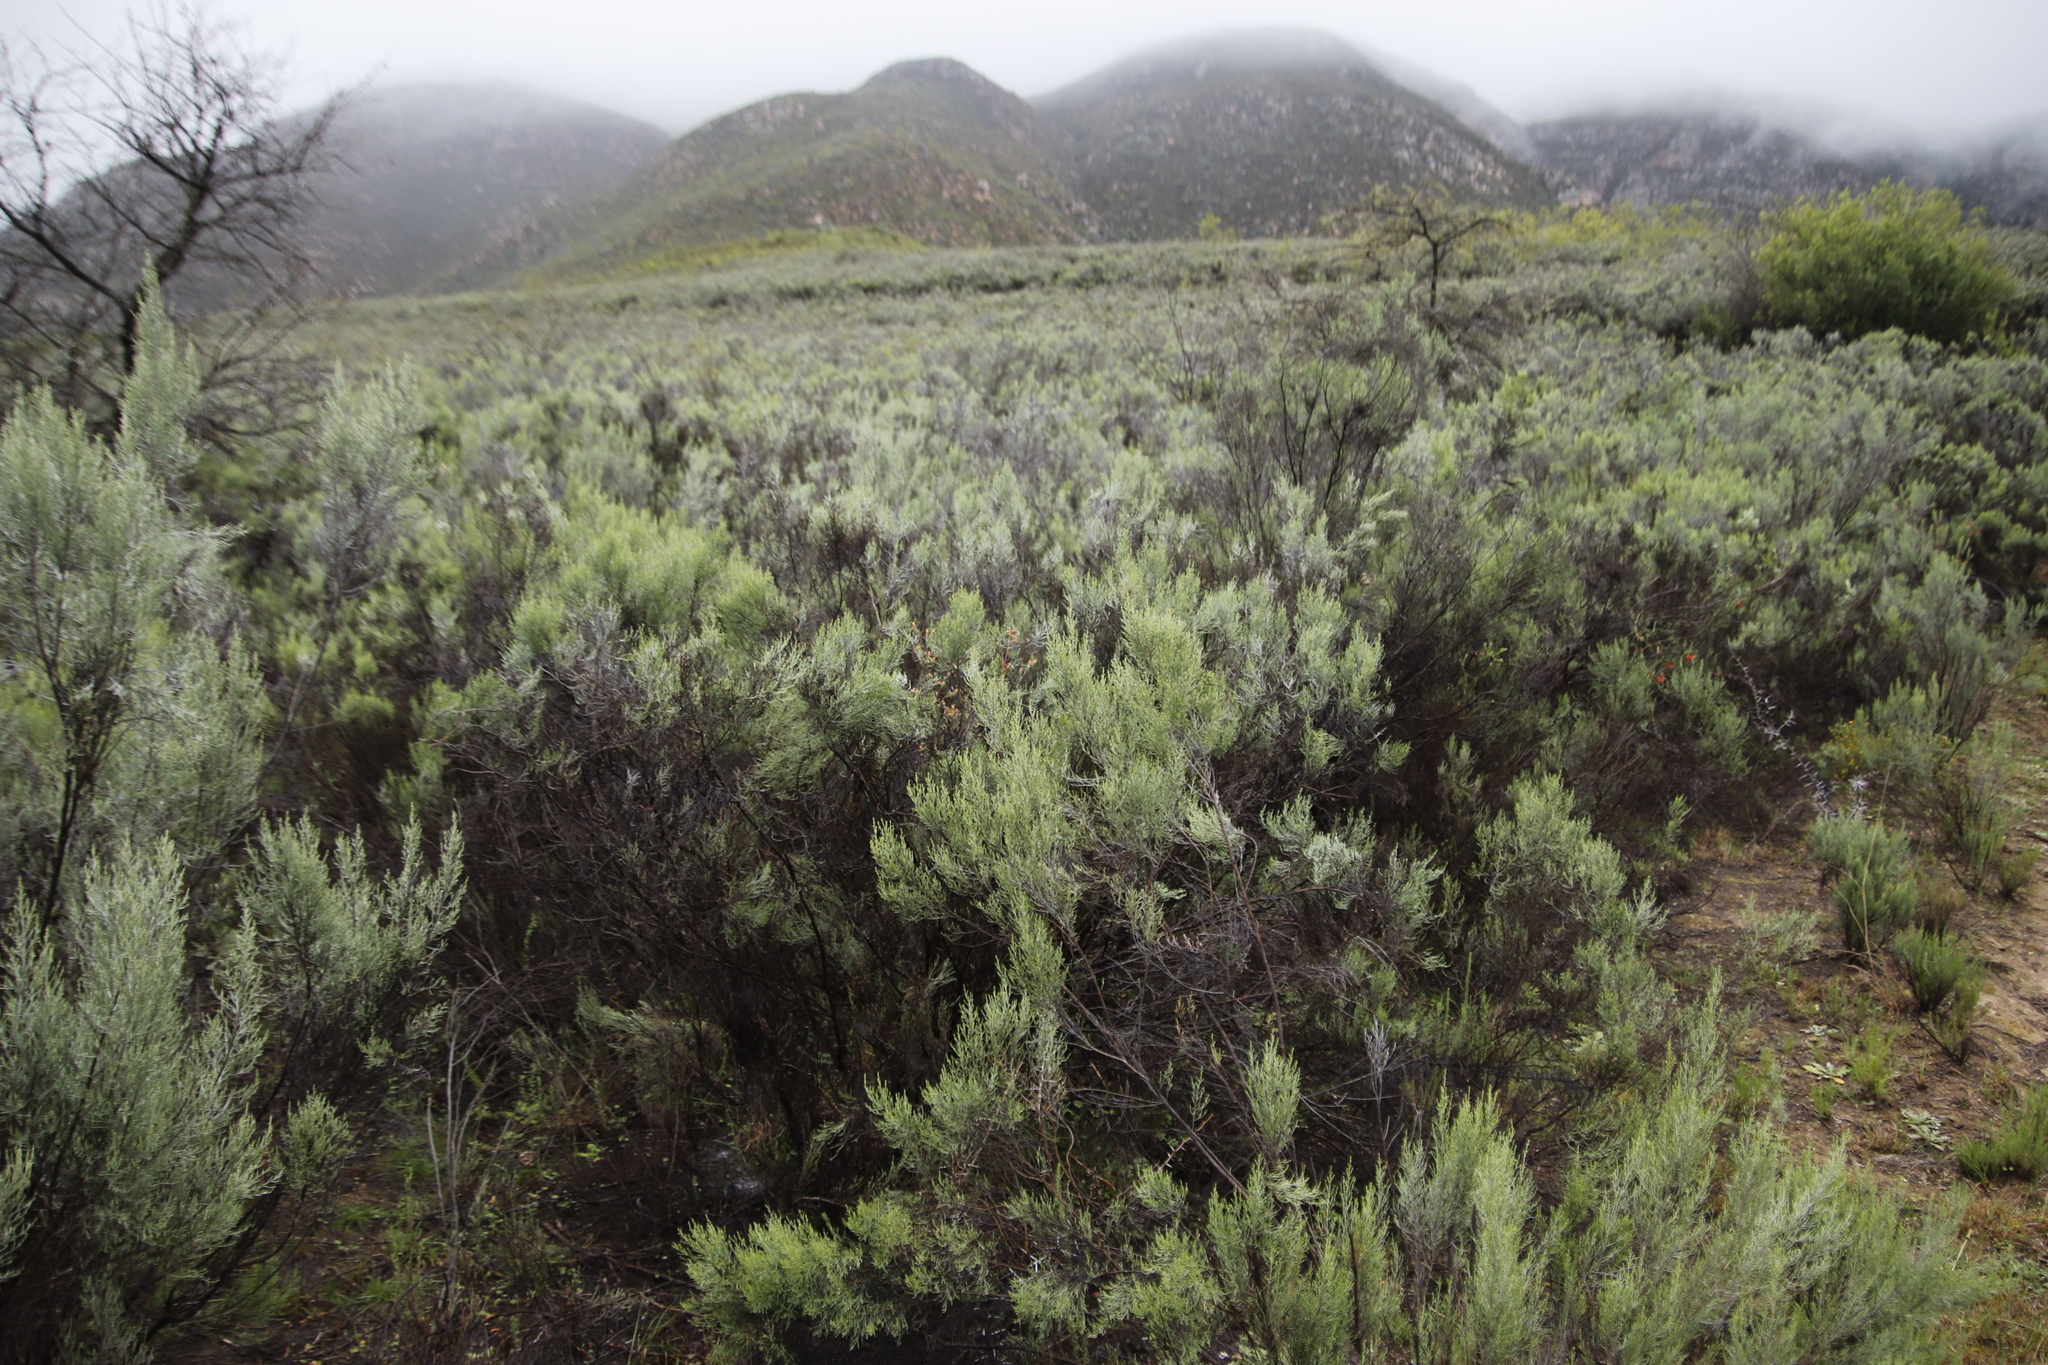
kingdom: Plantae
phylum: Tracheophyta
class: Magnoliopsida
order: Asterales
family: Asteraceae
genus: Dicerothamnus
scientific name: Dicerothamnus rhinocerotis
